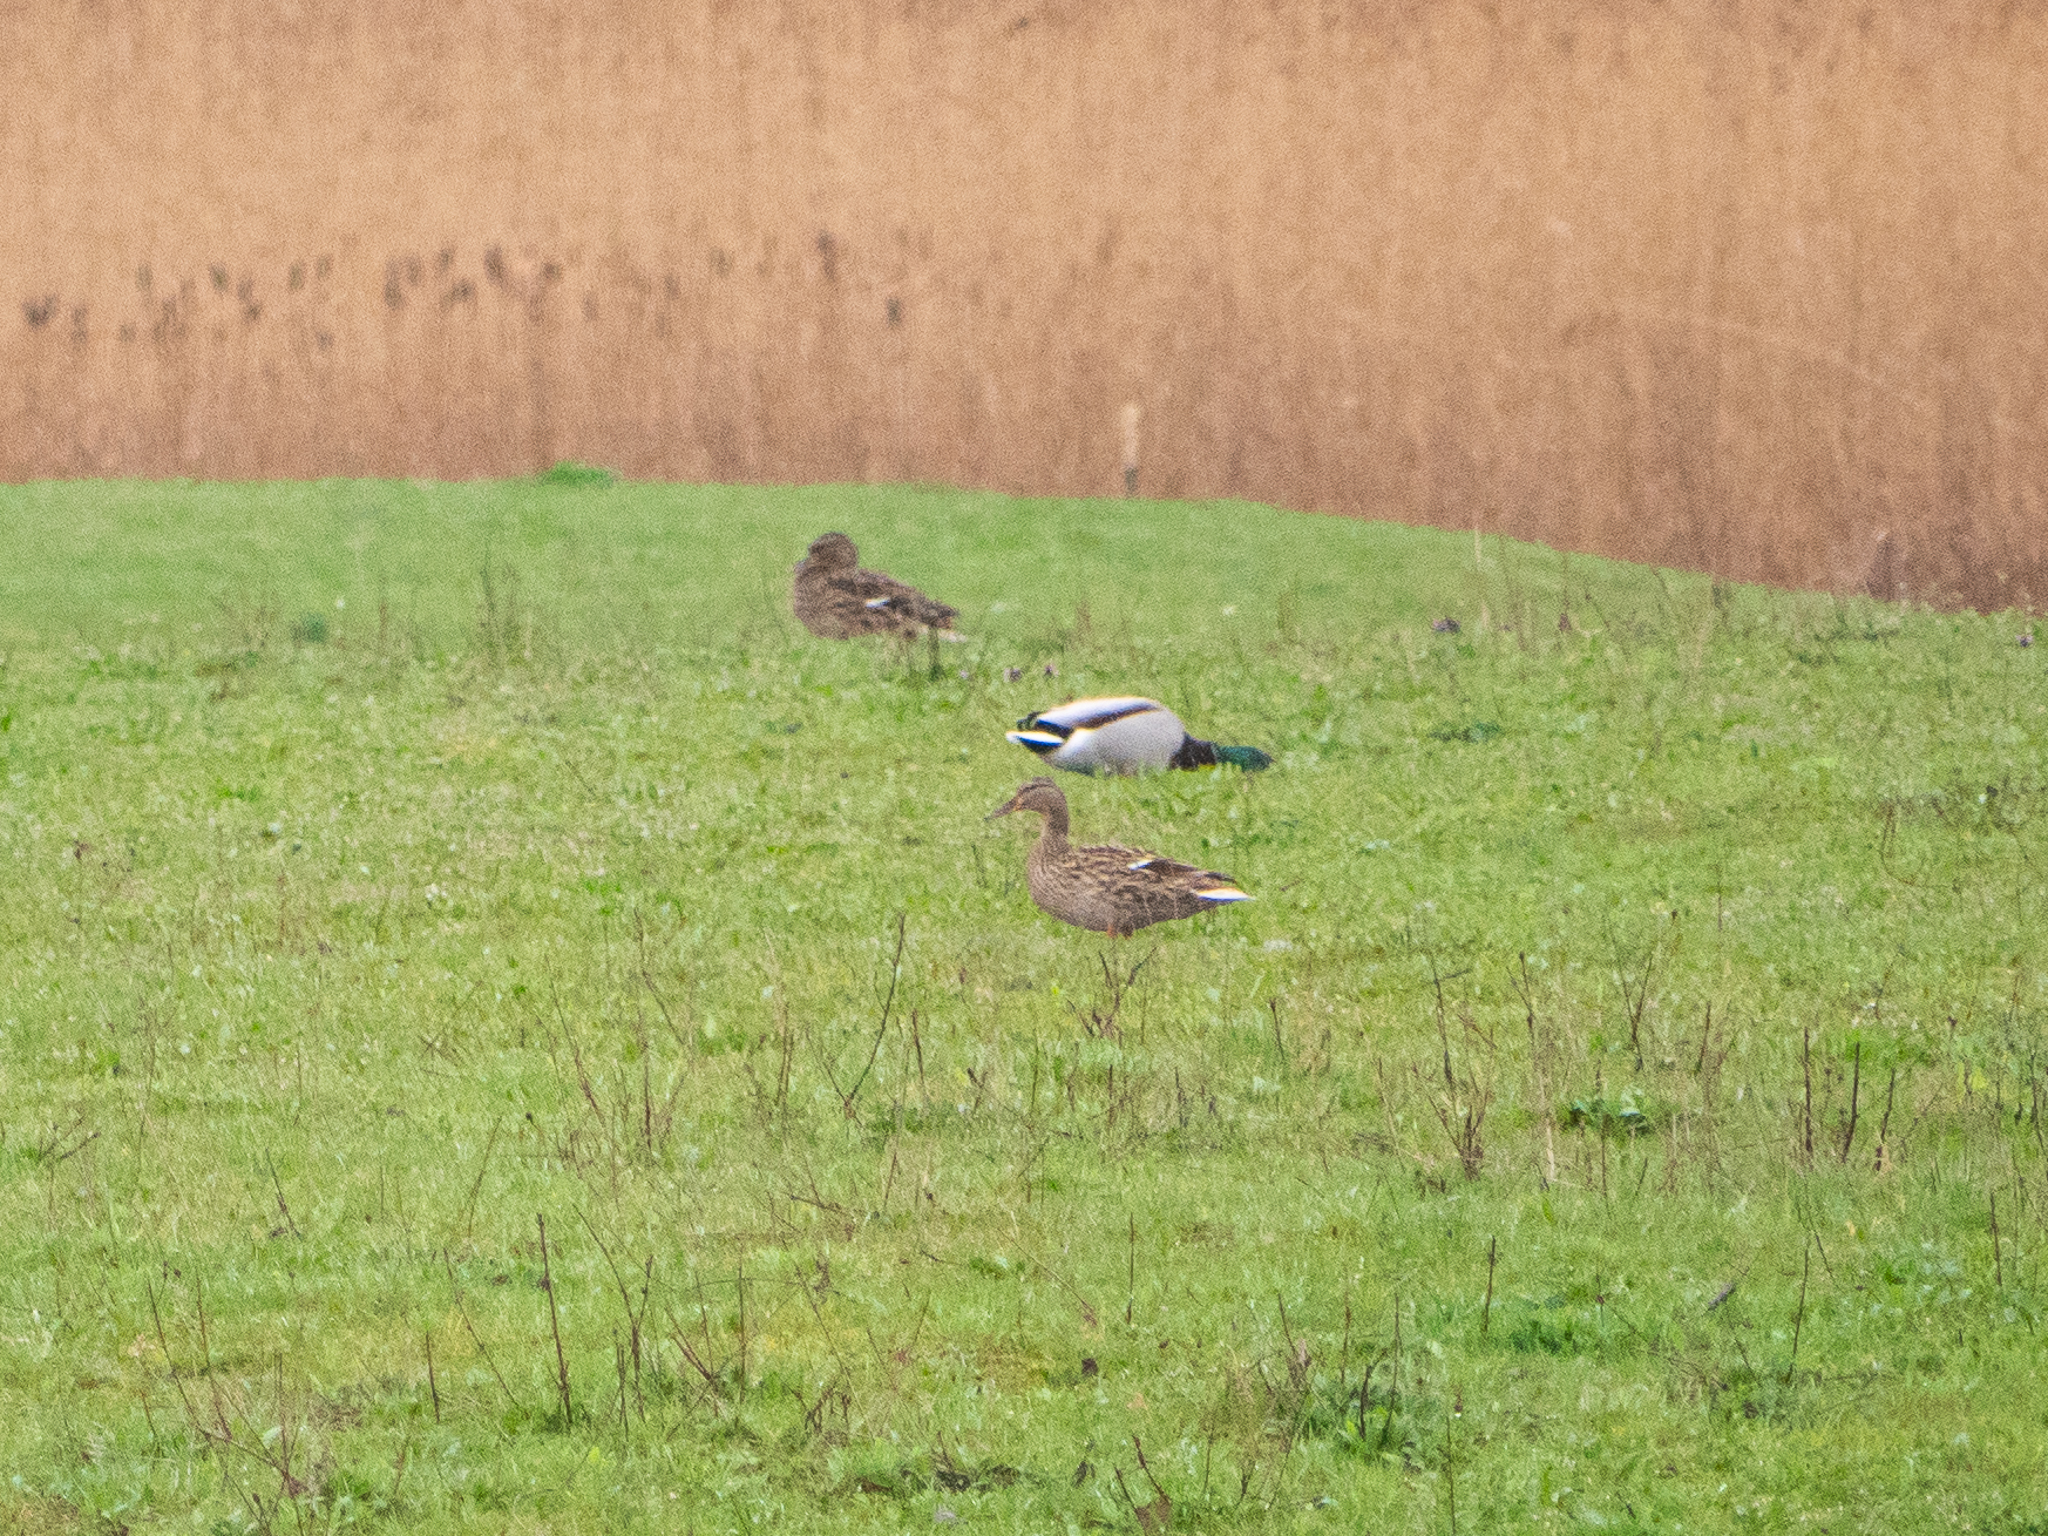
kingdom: Animalia
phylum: Chordata
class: Aves
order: Anseriformes
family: Anatidae
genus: Anas
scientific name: Anas platyrhynchos
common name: Mallard
